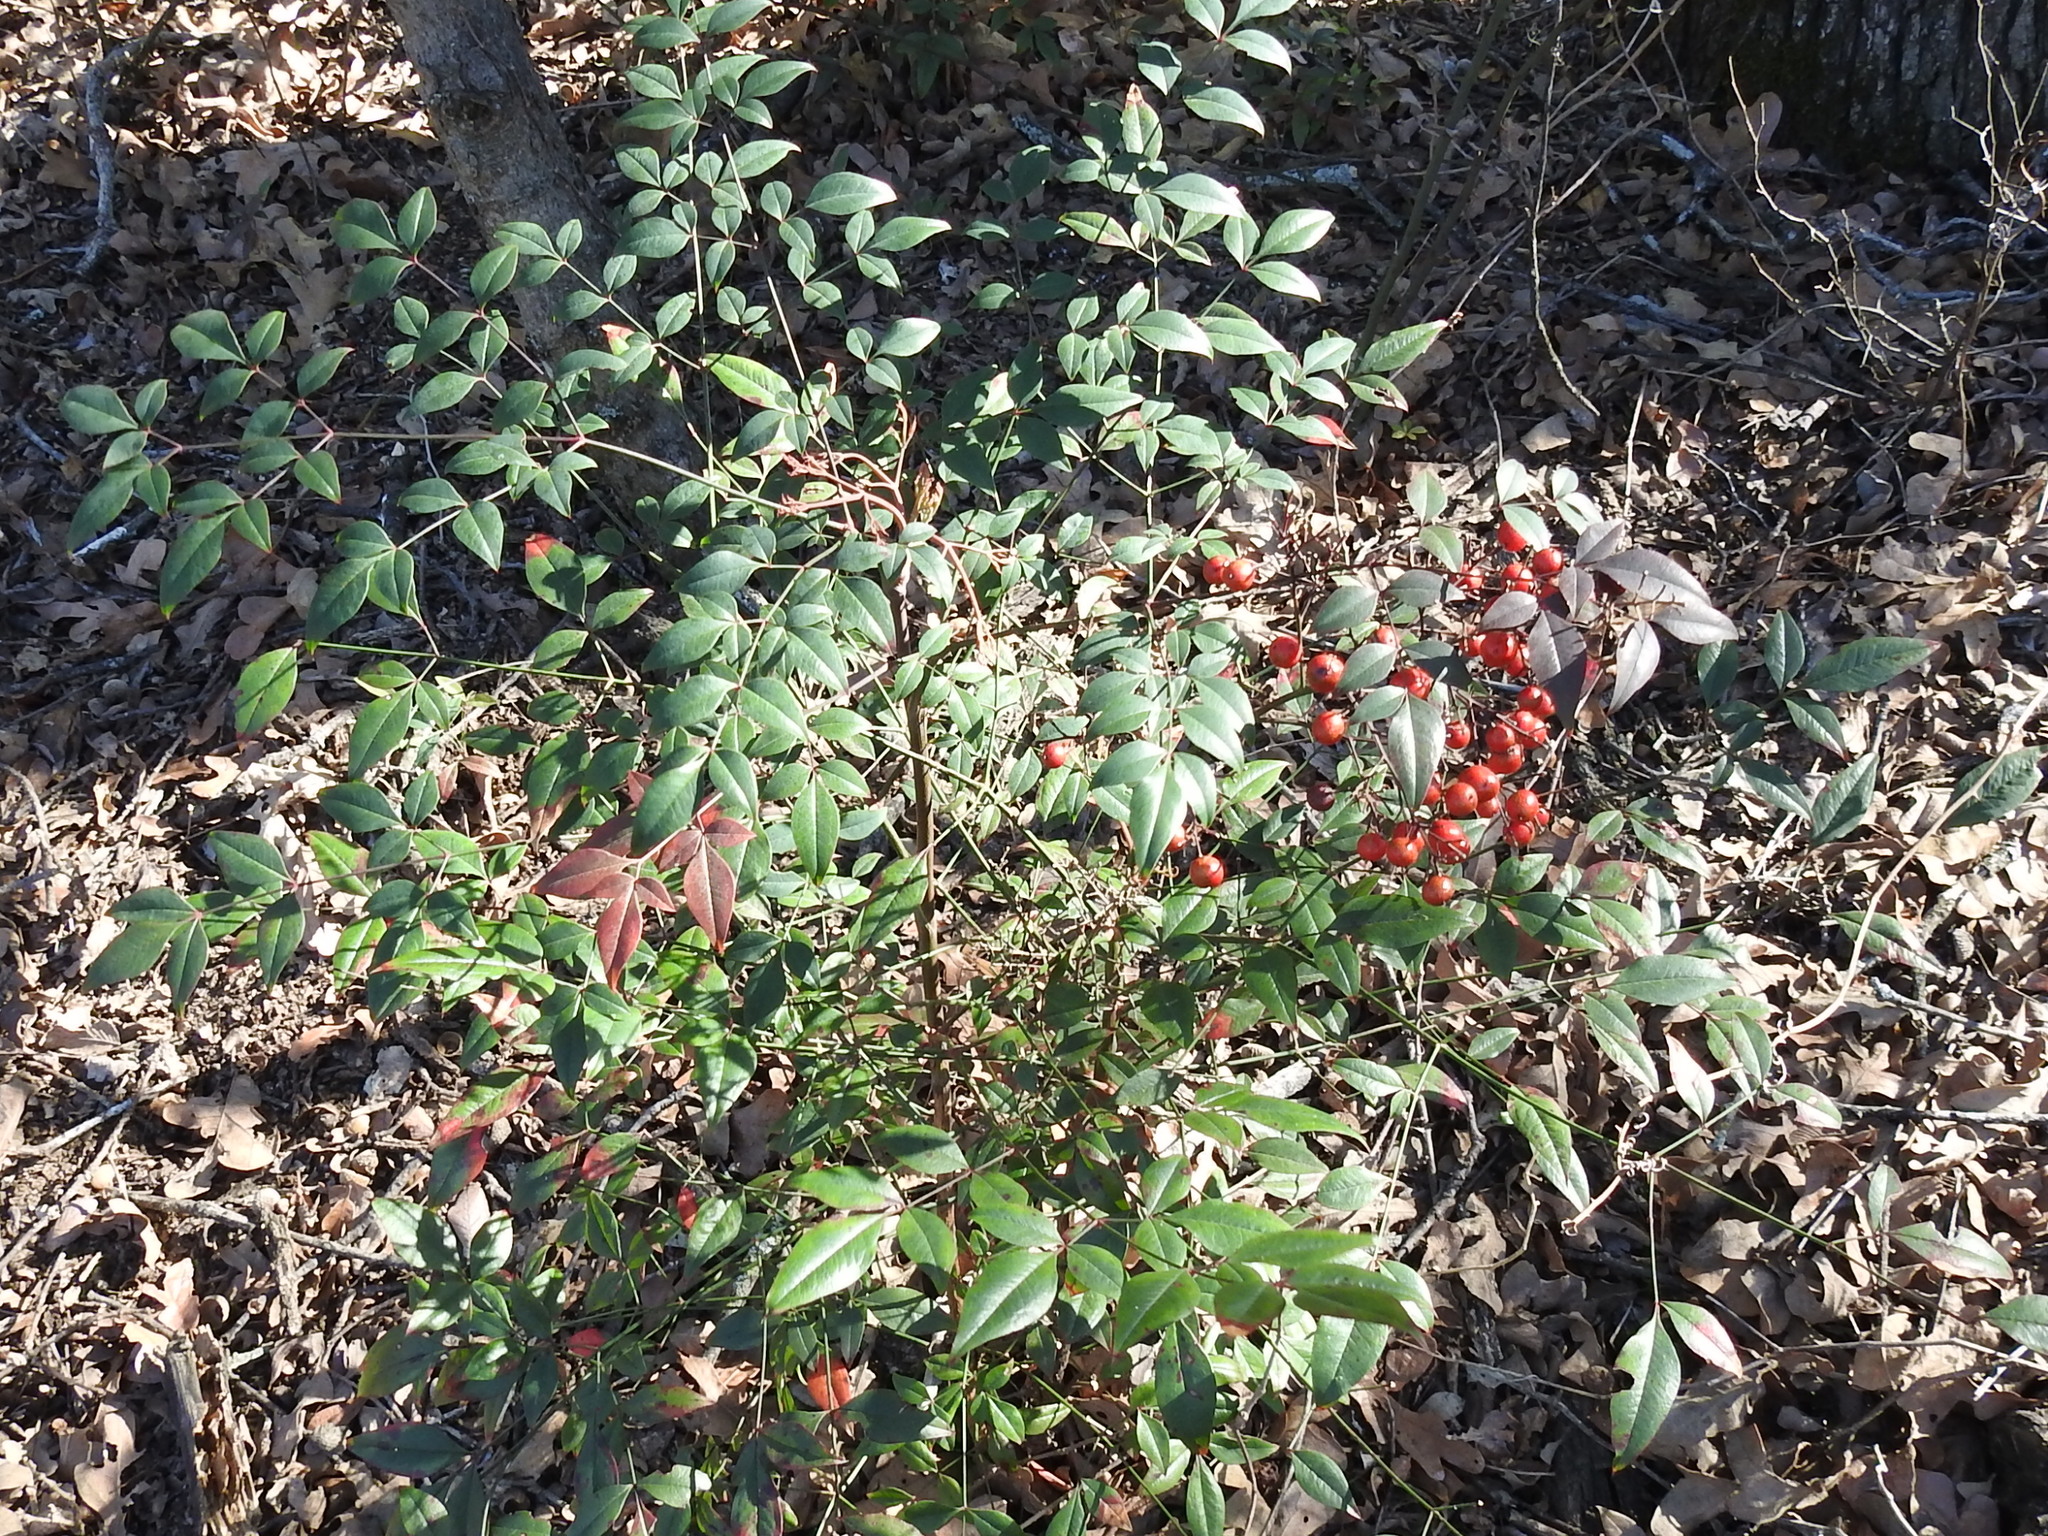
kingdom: Plantae
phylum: Tracheophyta
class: Magnoliopsida
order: Ranunculales
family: Berberidaceae
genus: Nandina
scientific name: Nandina domestica
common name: Sacred bamboo
